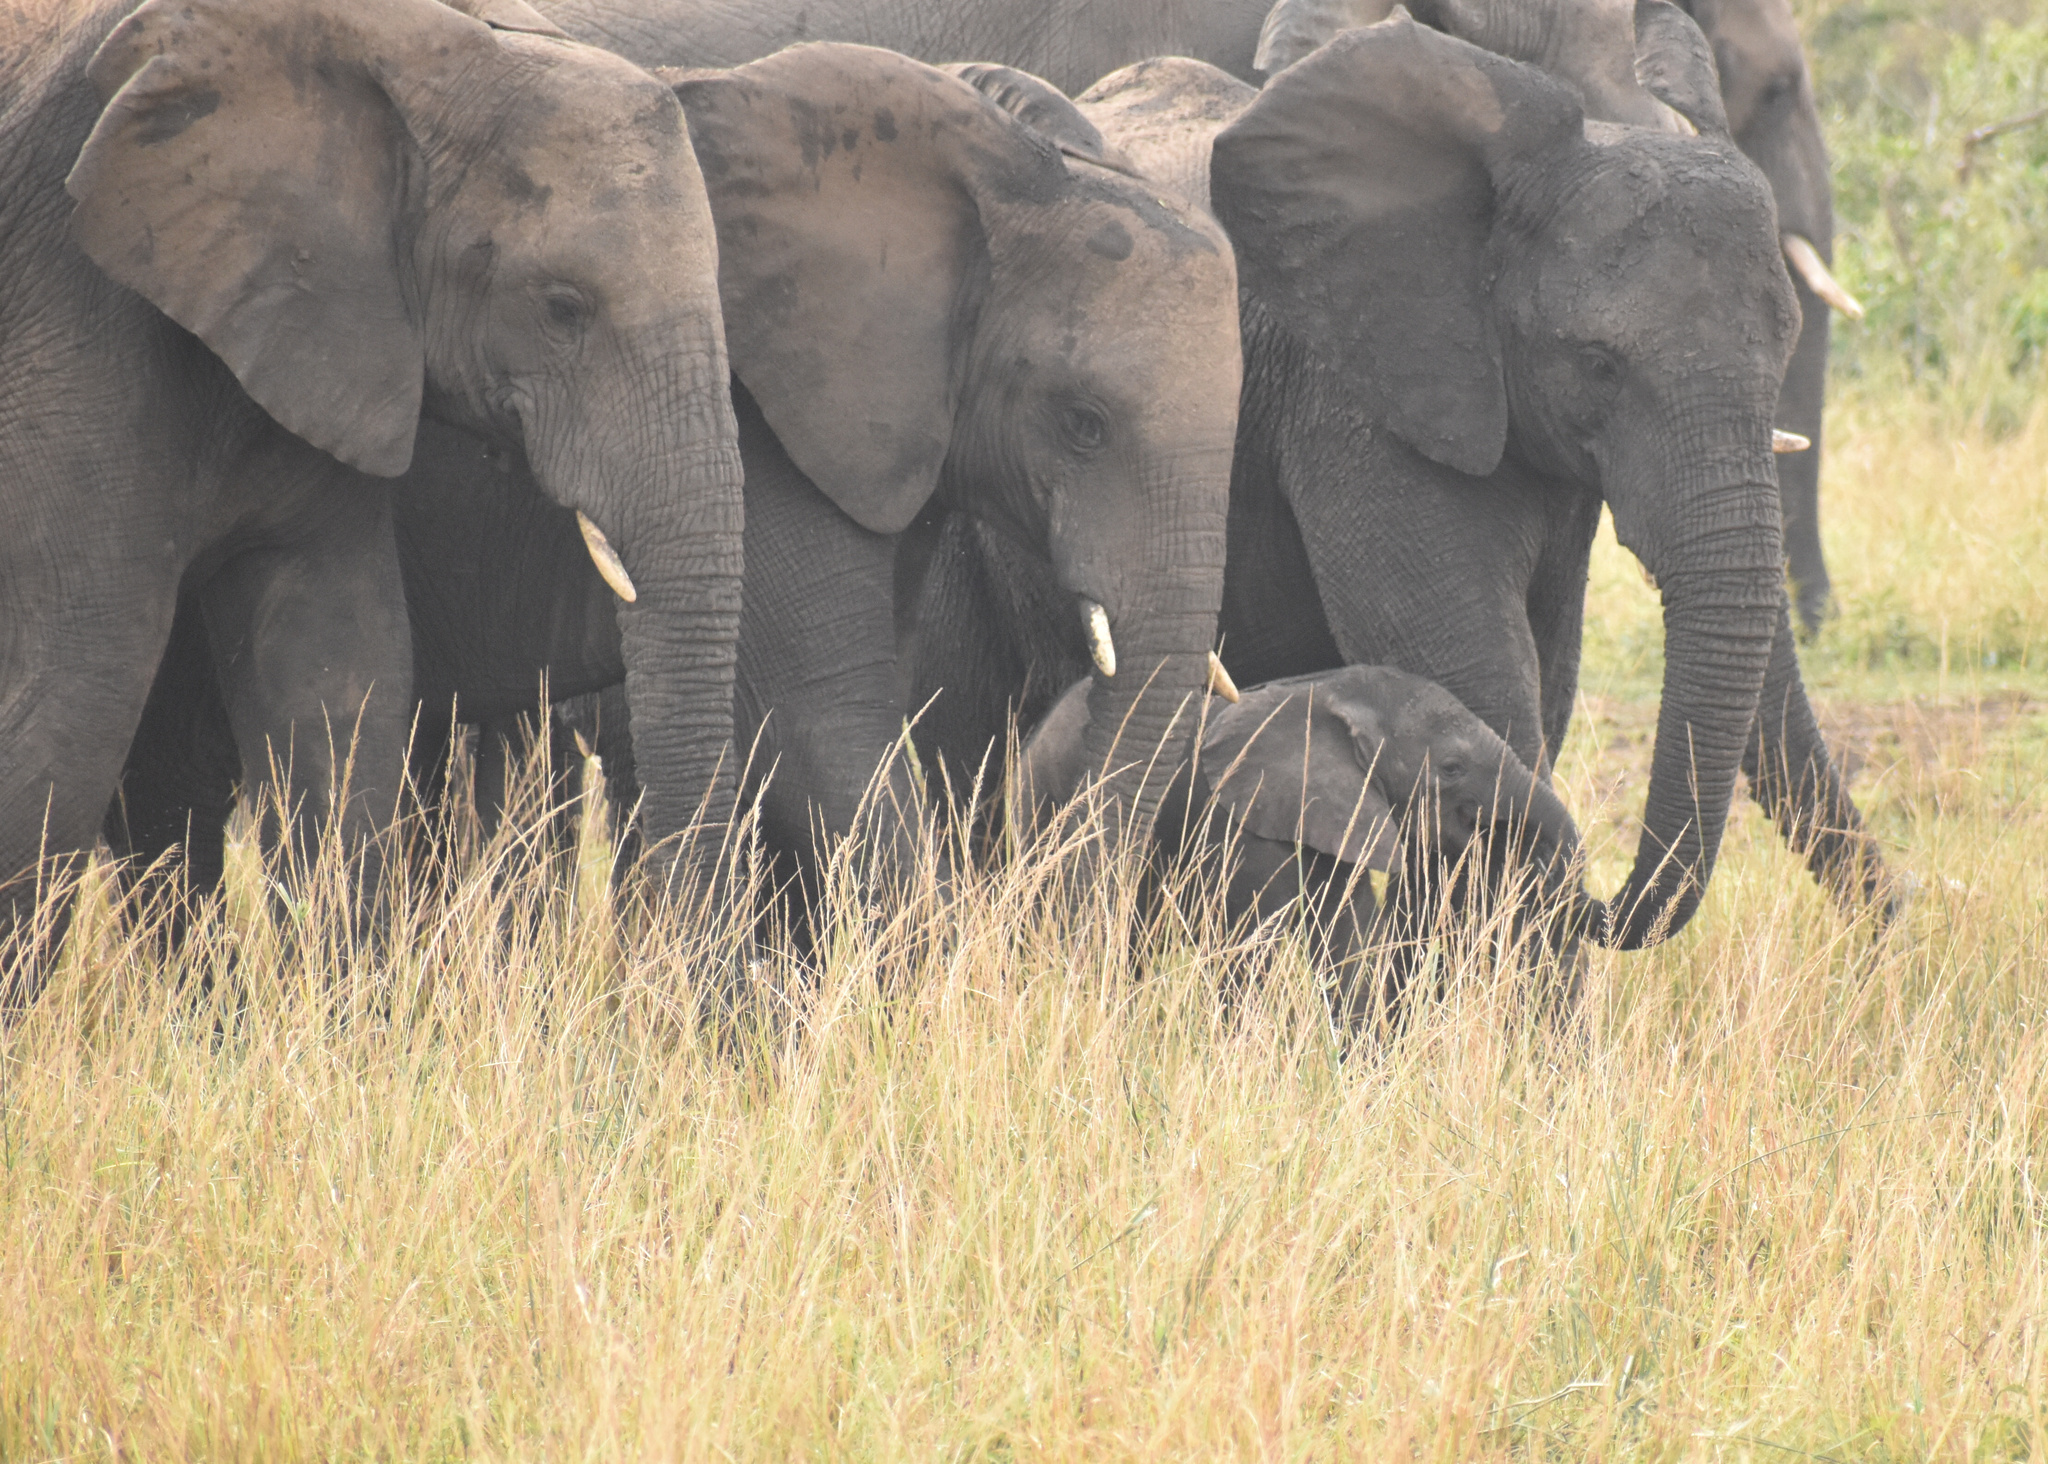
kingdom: Animalia
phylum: Chordata
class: Mammalia
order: Proboscidea
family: Elephantidae
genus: Loxodonta
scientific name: Loxodonta africana
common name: African elephant
